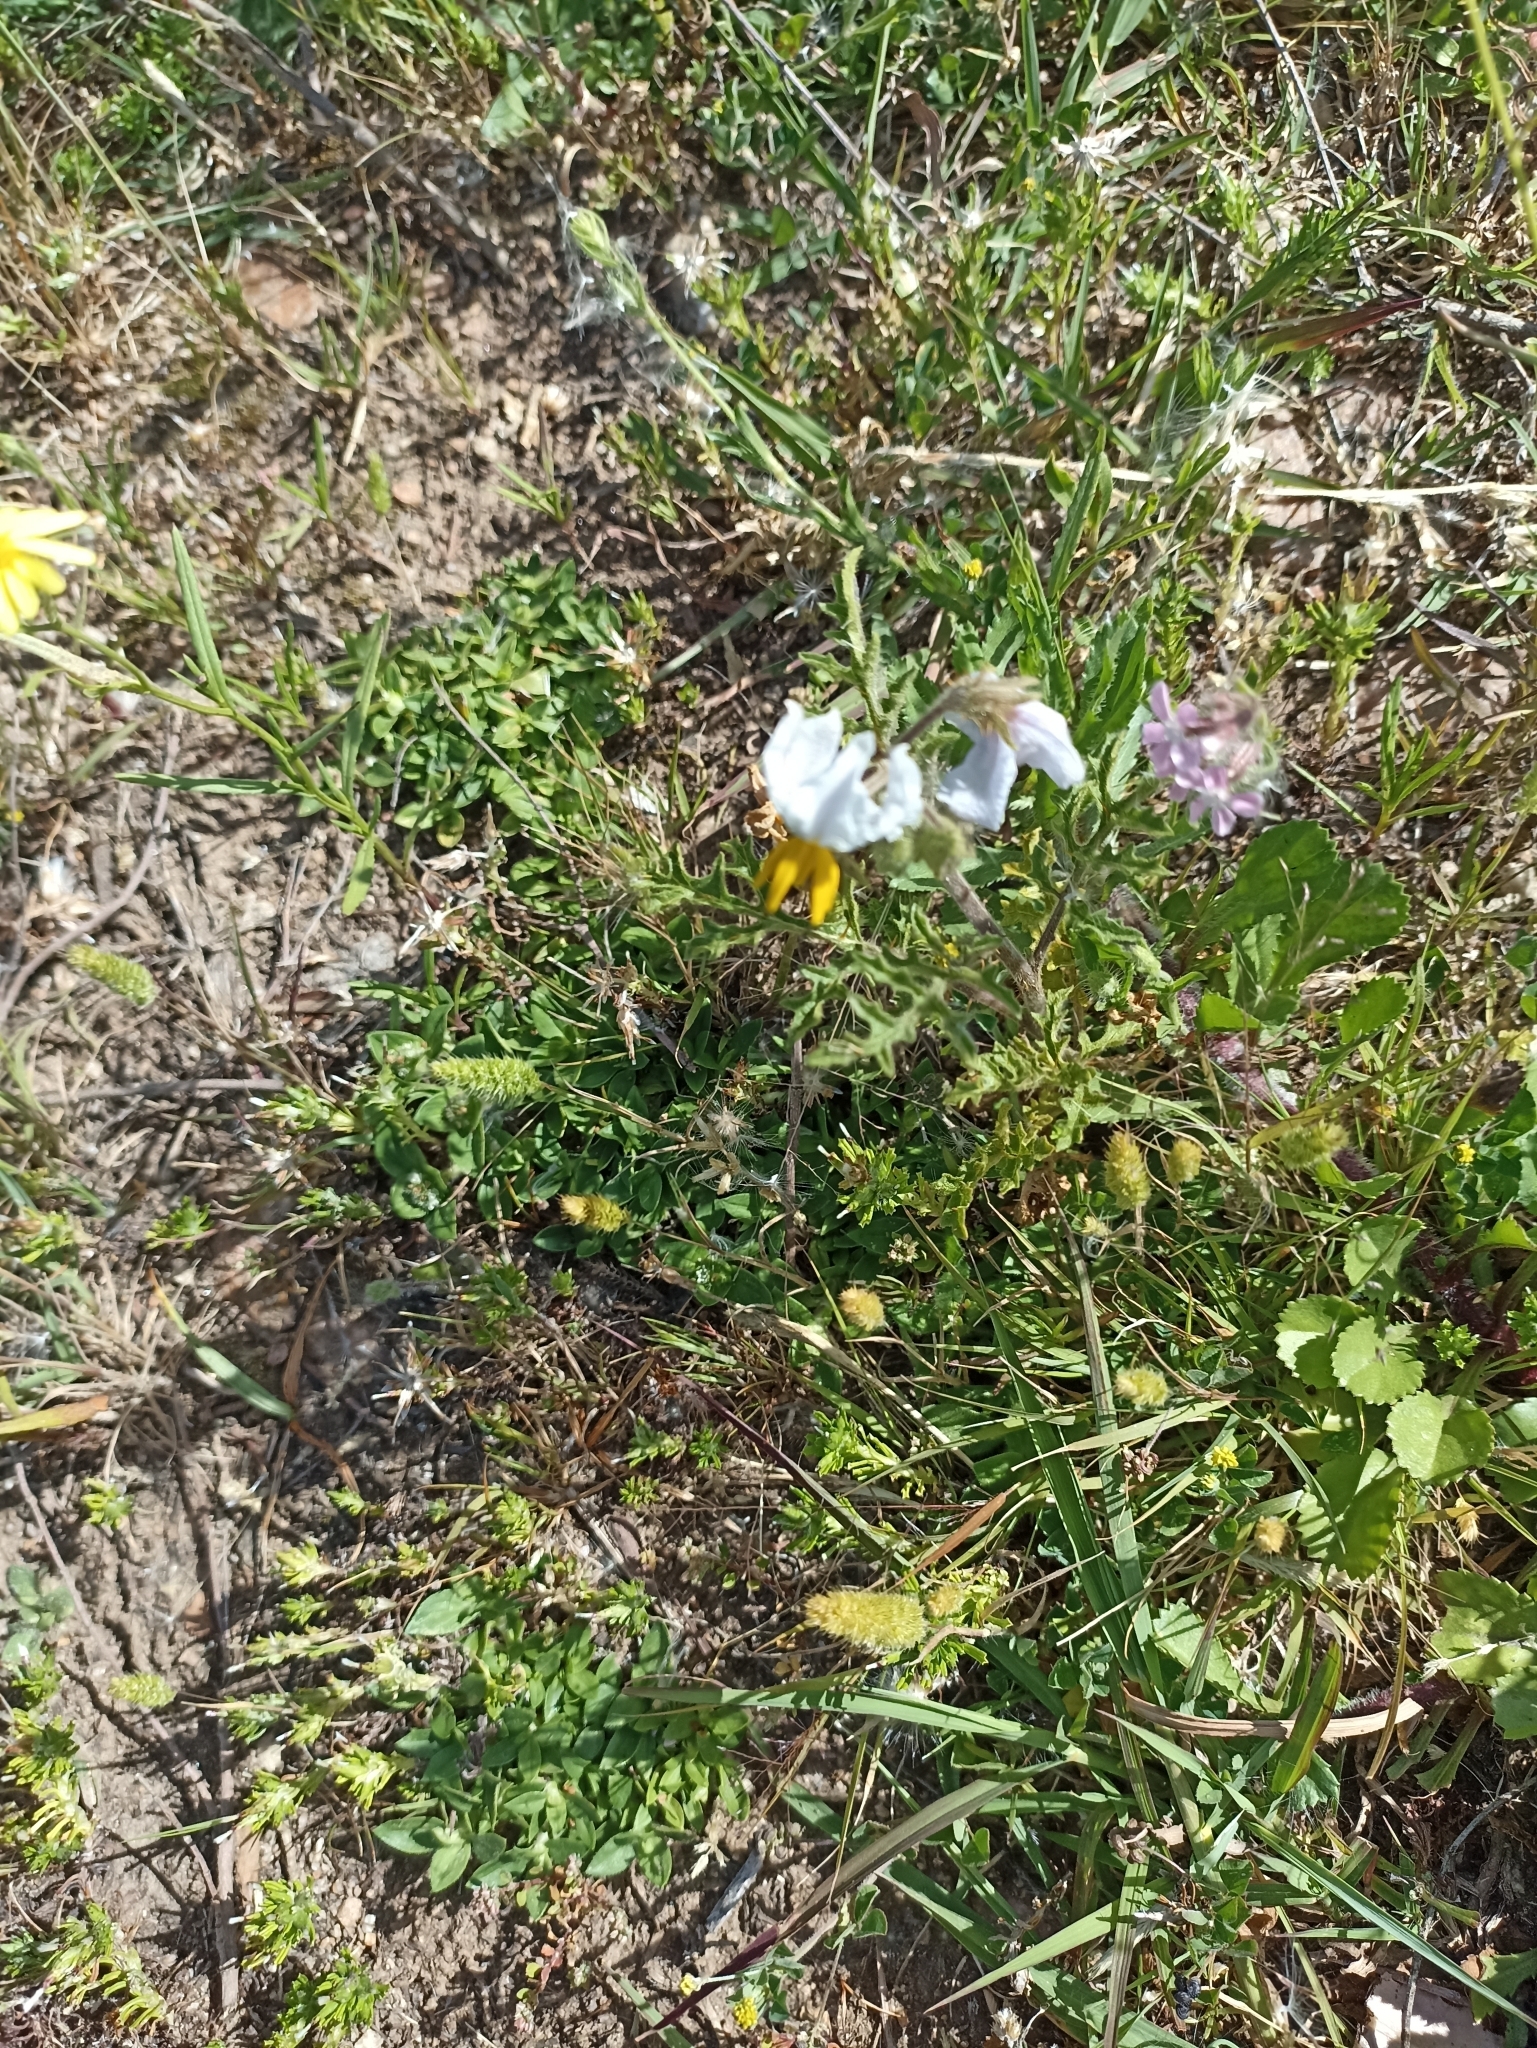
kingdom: Plantae
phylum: Tracheophyta
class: Magnoliopsida
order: Solanales
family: Solanaceae
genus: Solanum
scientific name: Solanum sisymbriifolium
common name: Red buffalo-bur
